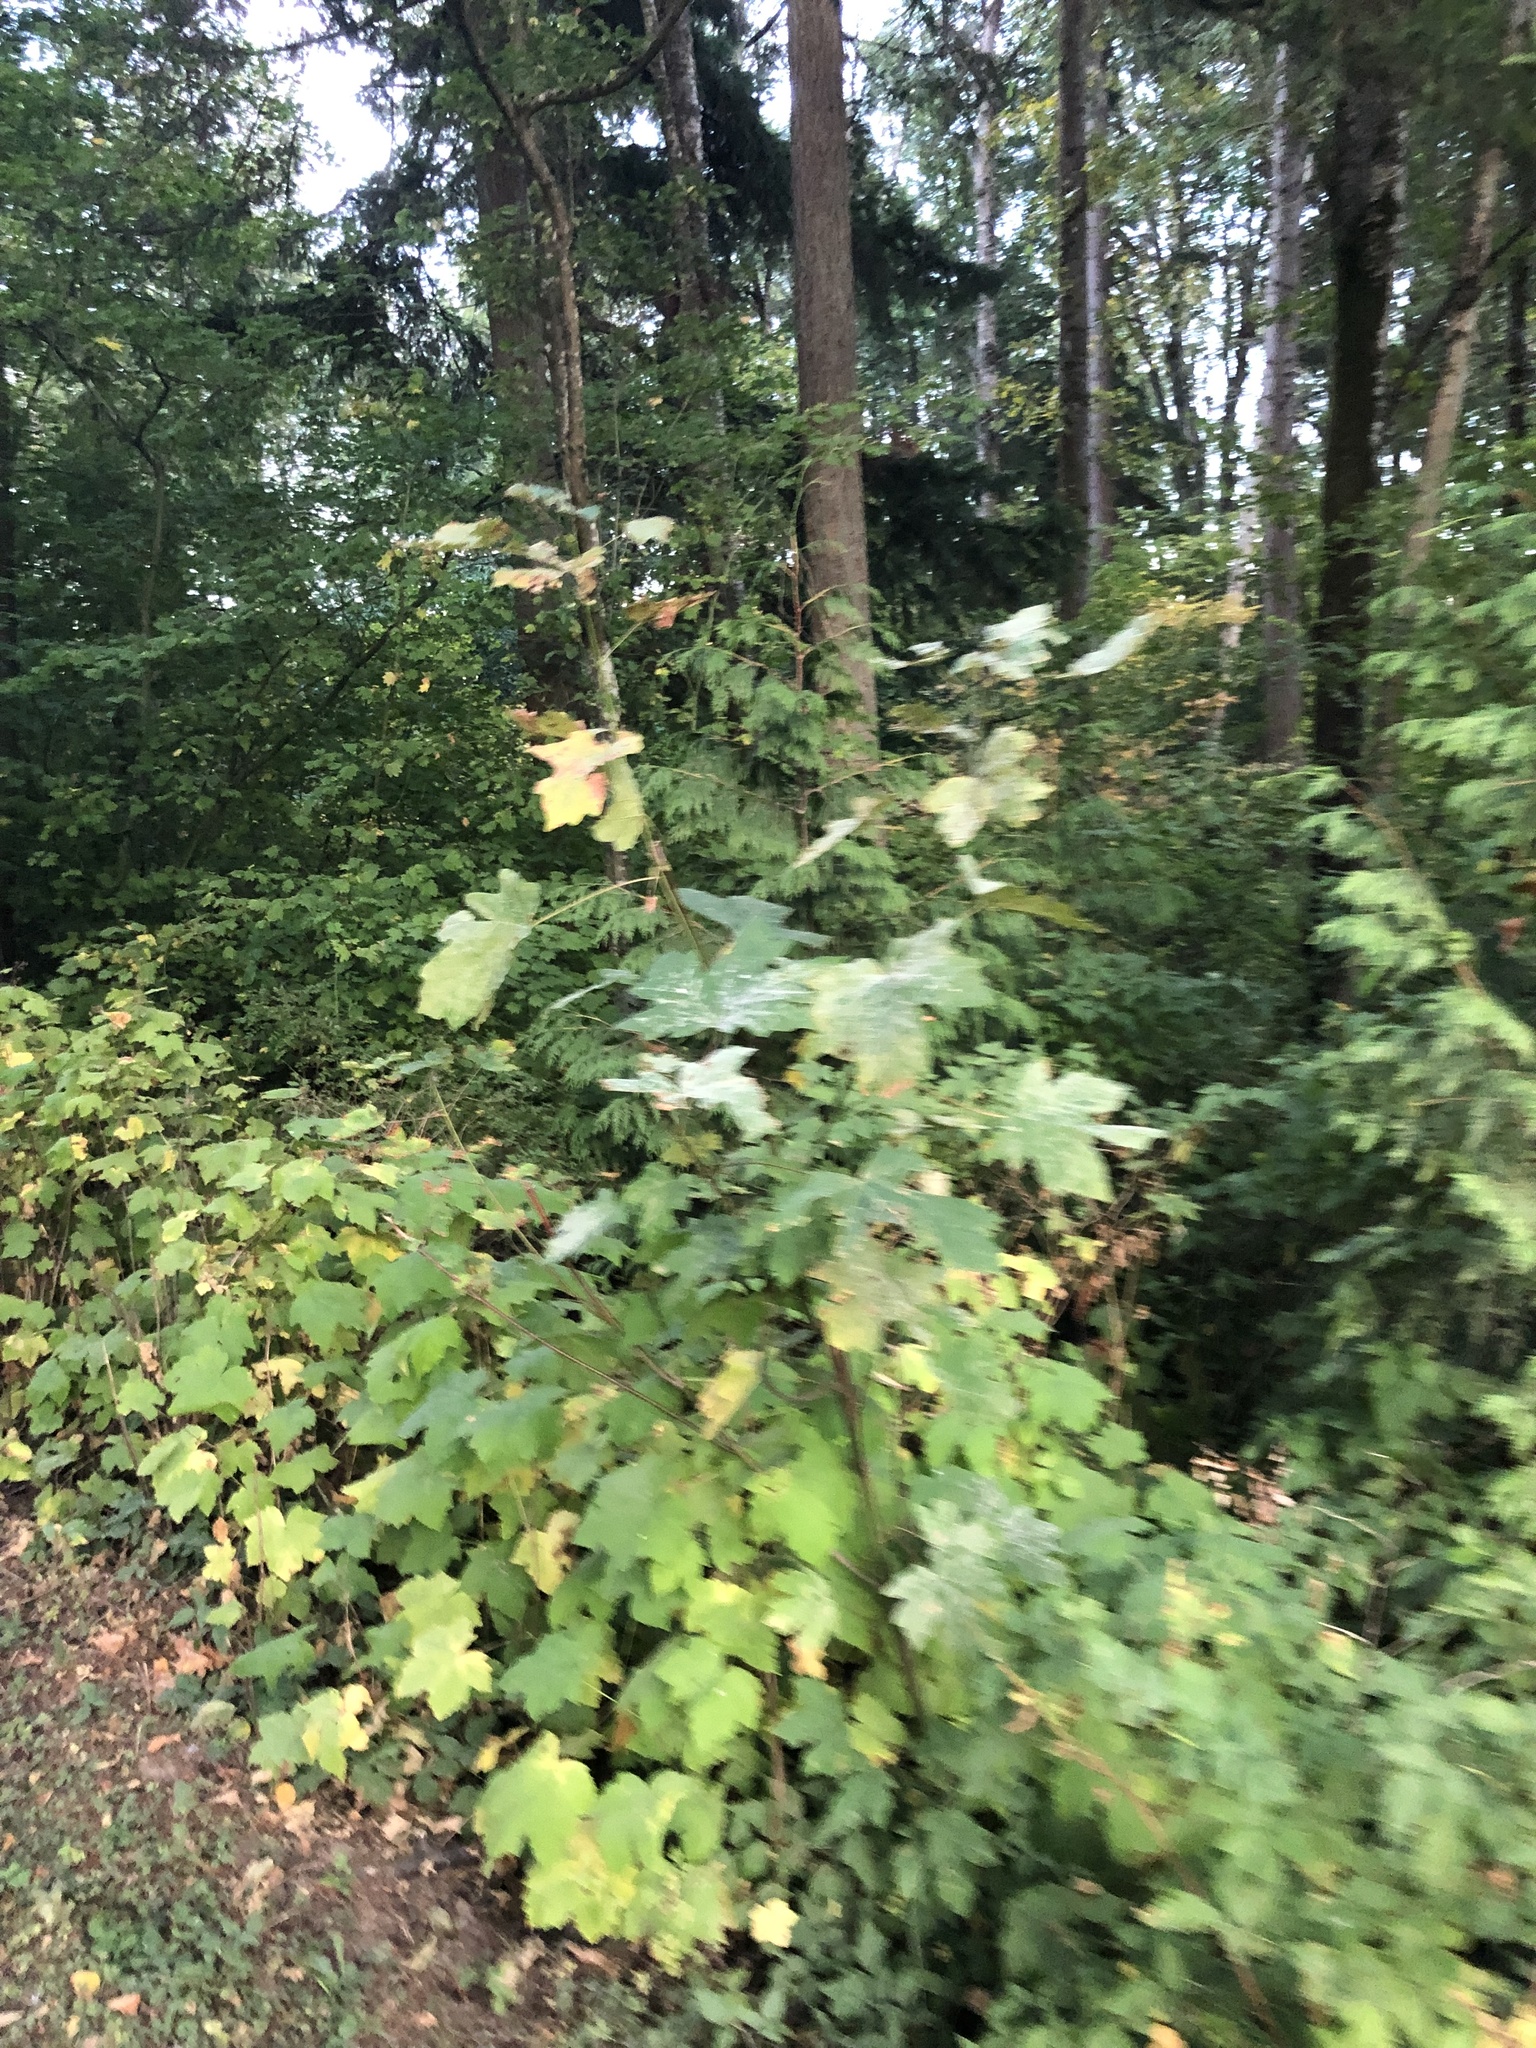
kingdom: Plantae
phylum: Tracheophyta
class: Magnoliopsida
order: Sapindales
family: Sapindaceae
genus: Acer
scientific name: Acer macrophyllum
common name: Oregon maple
